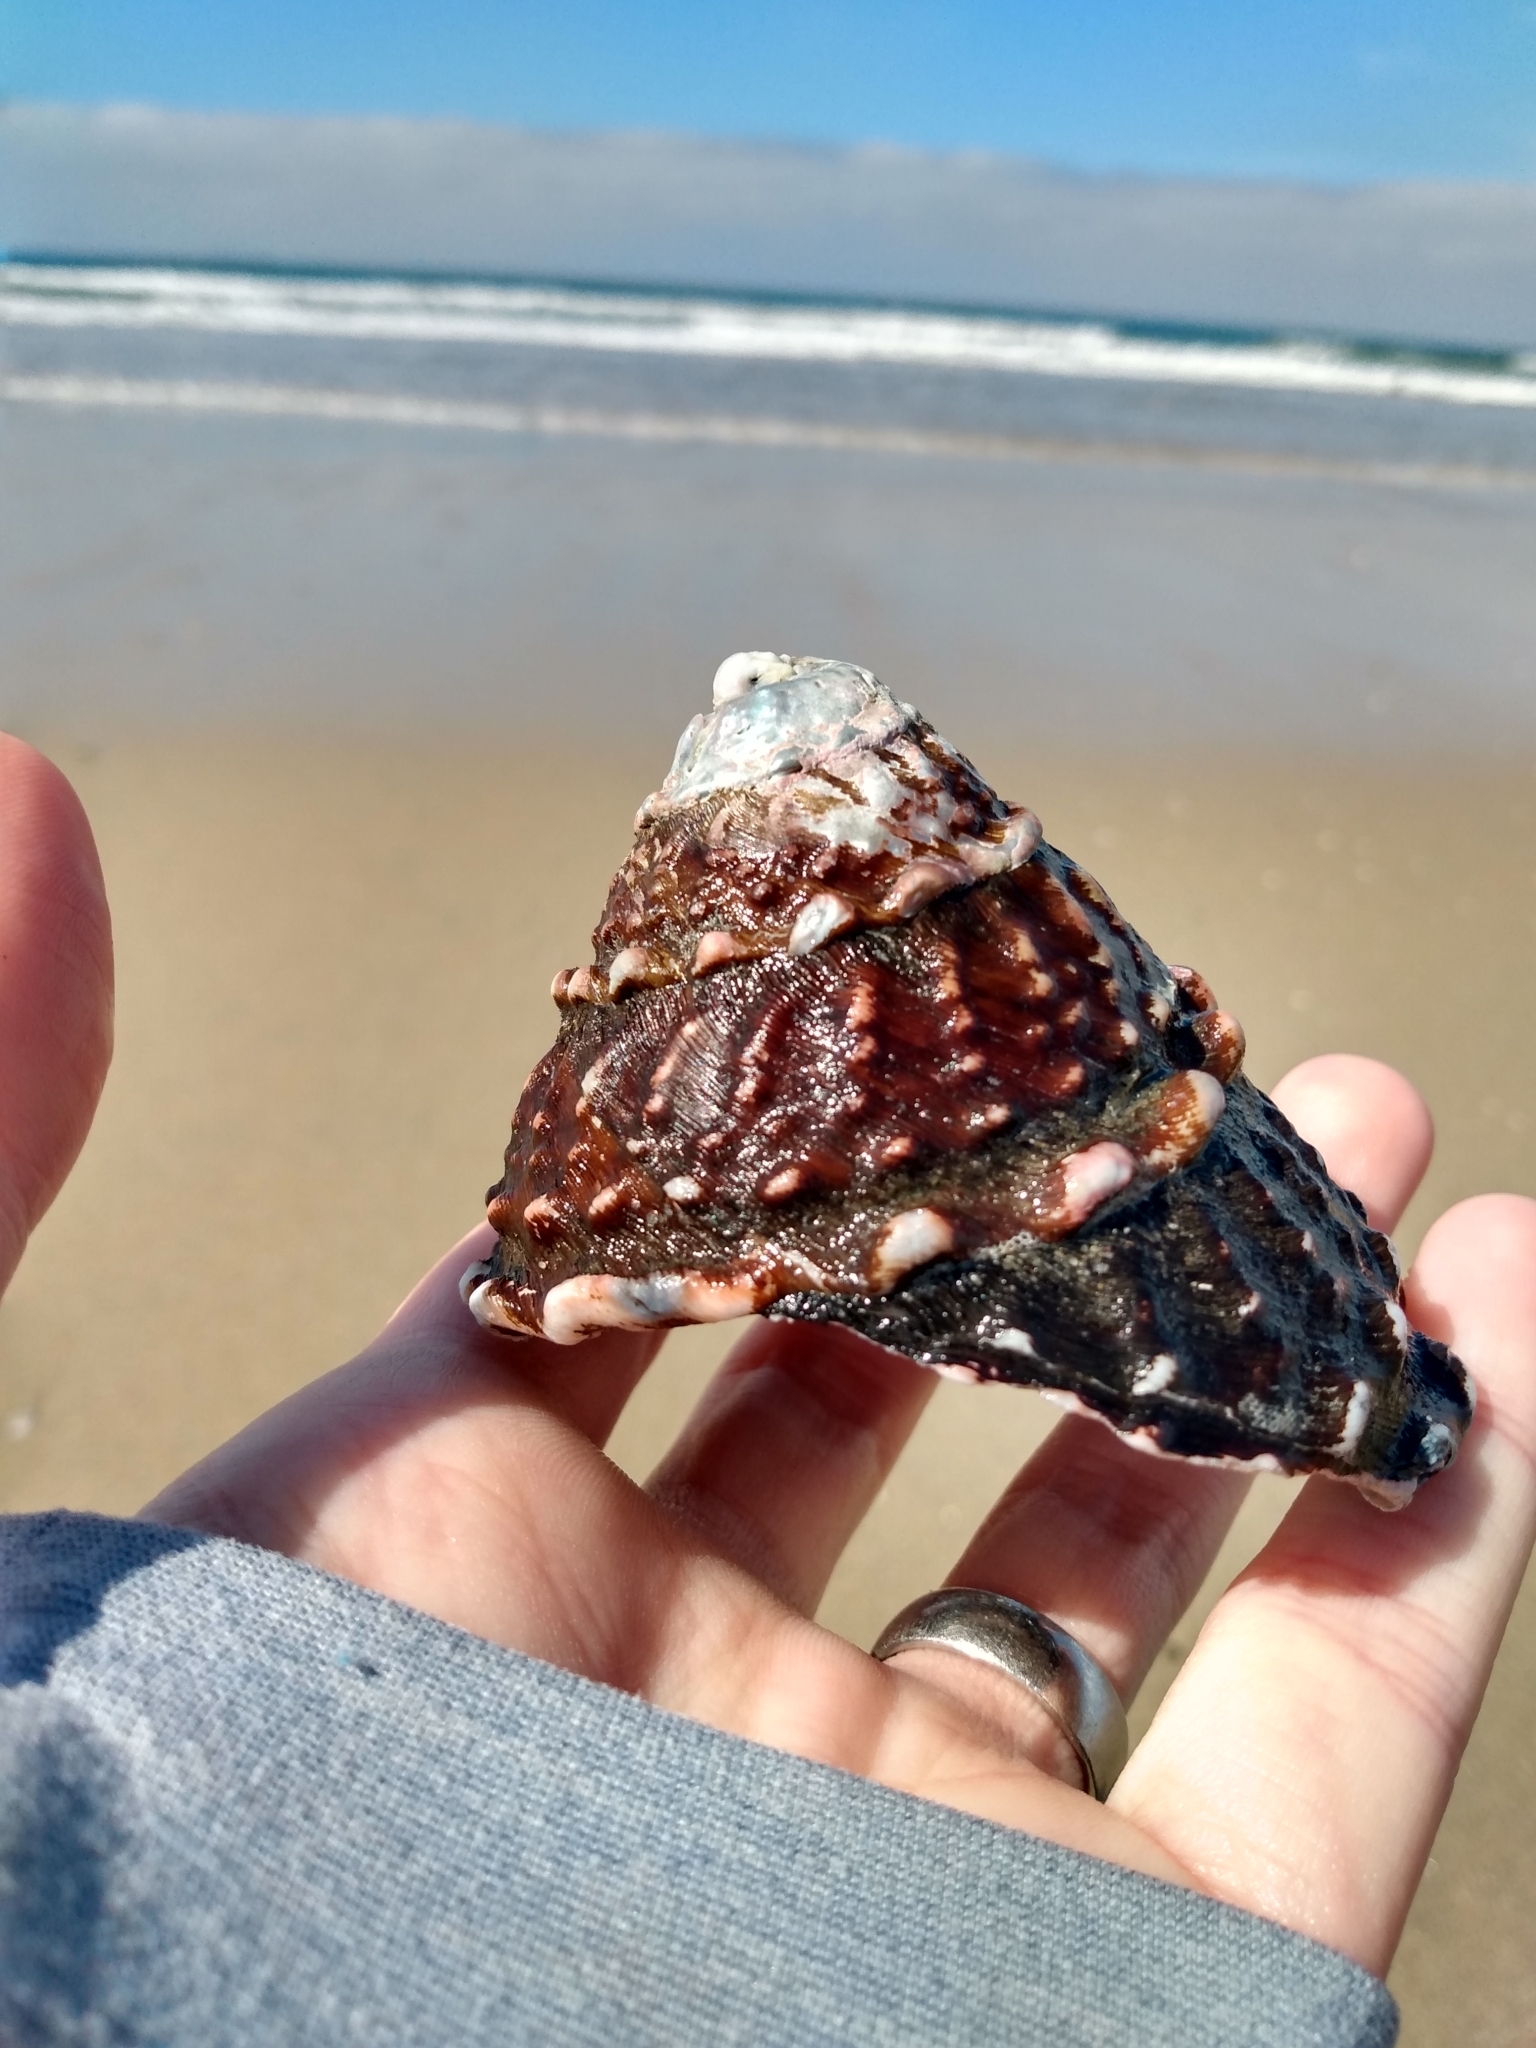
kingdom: Animalia
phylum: Mollusca
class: Gastropoda
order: Trochida
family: Turbinidae
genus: Megastraea
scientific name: Megastraea undosa
